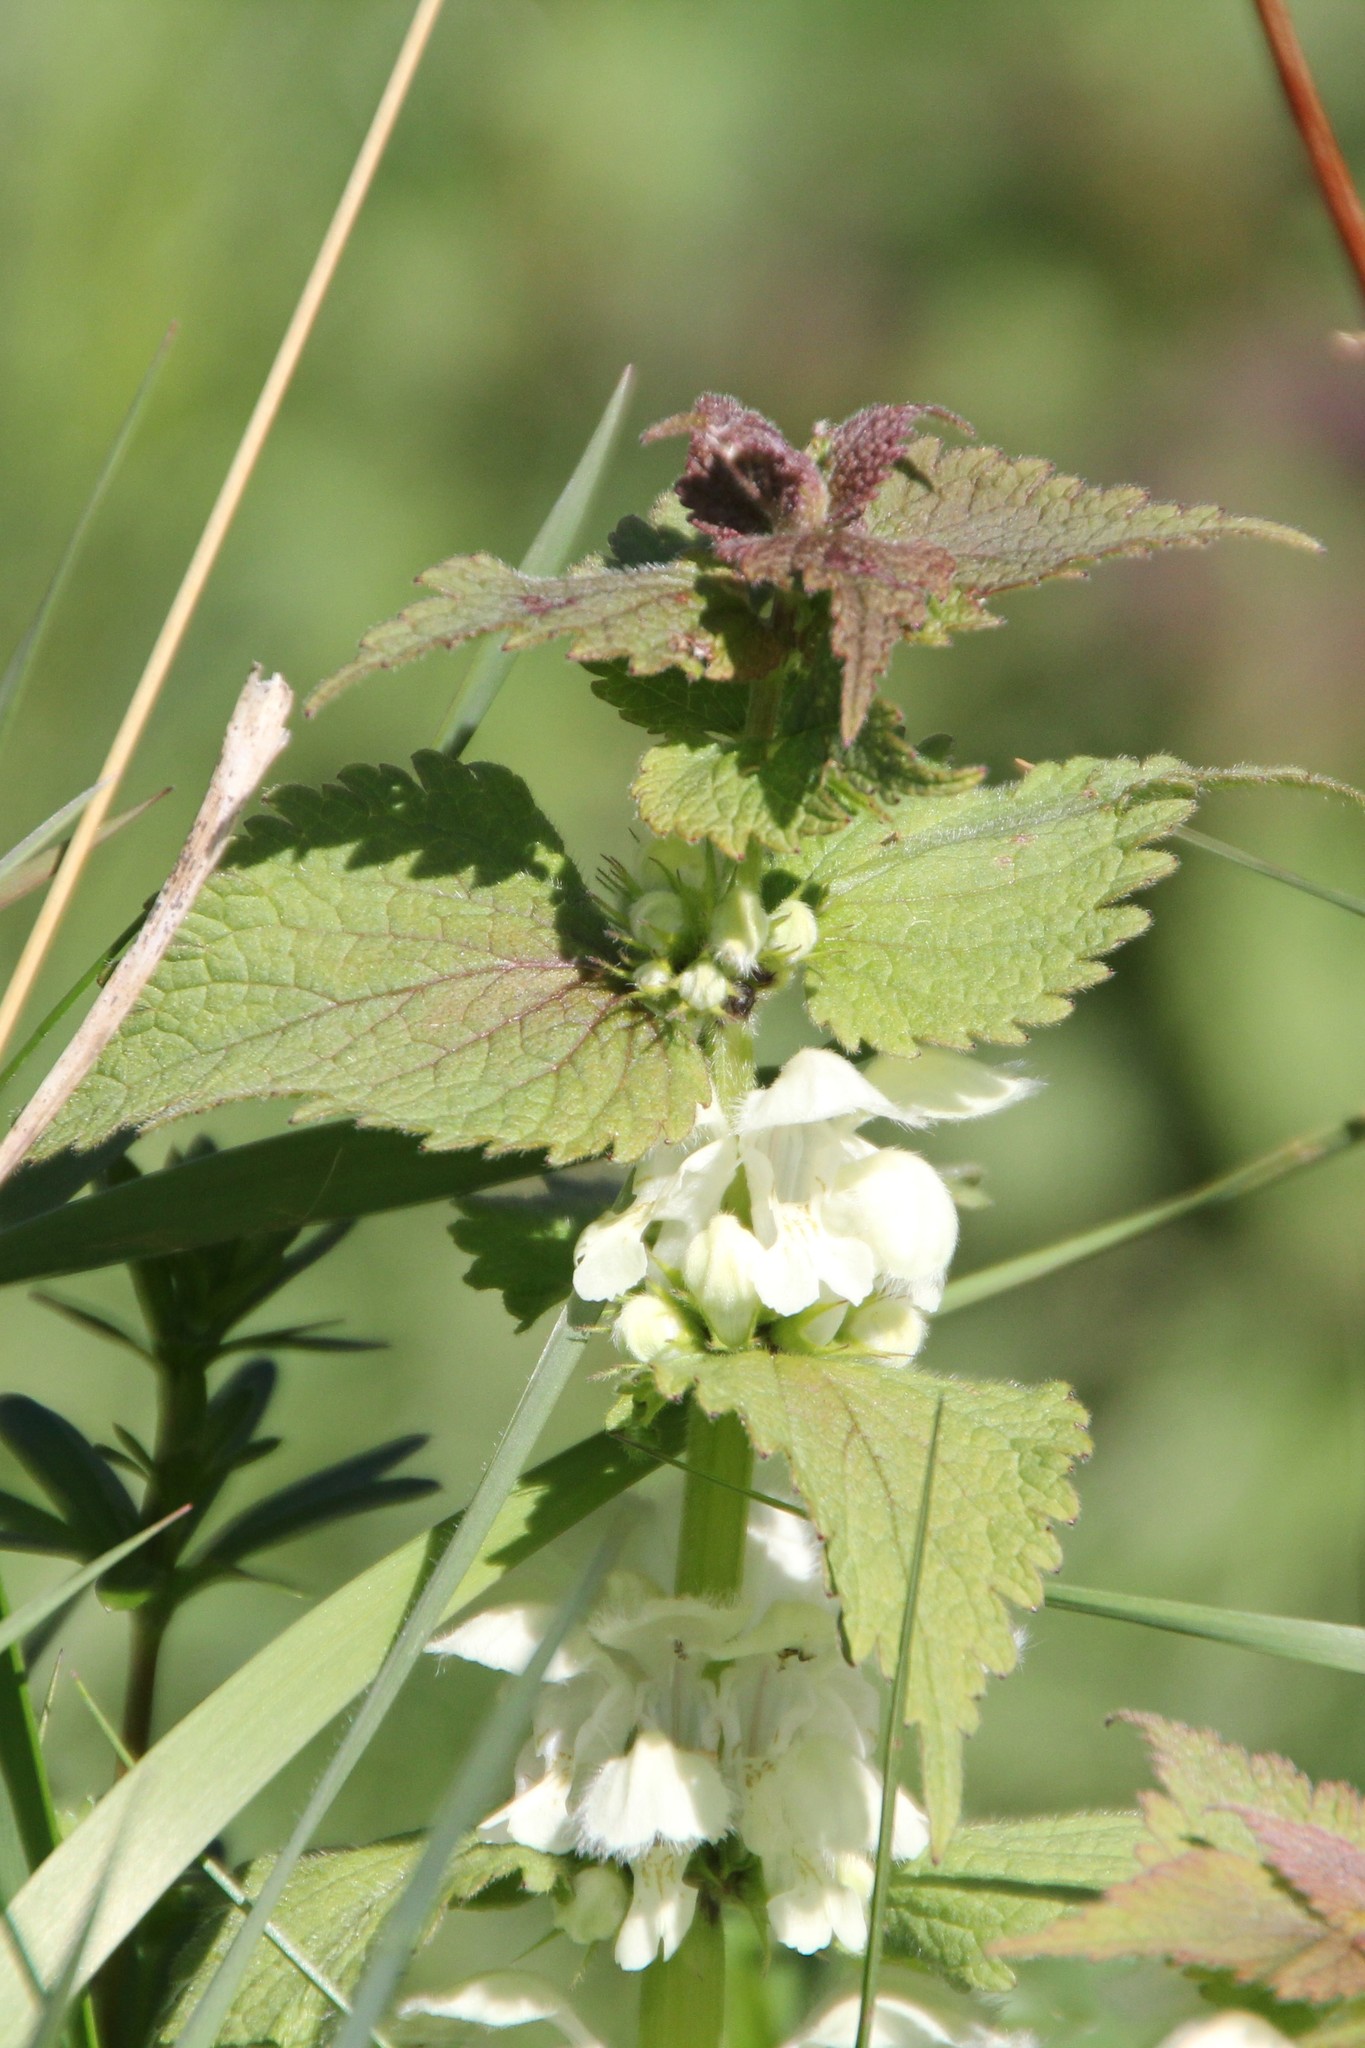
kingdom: Plantae
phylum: Tracheophyta
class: Magnoliopsida
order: Lamiales
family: Lamiaceae
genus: Lamium
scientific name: Lamium album
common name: White dead-nettle
